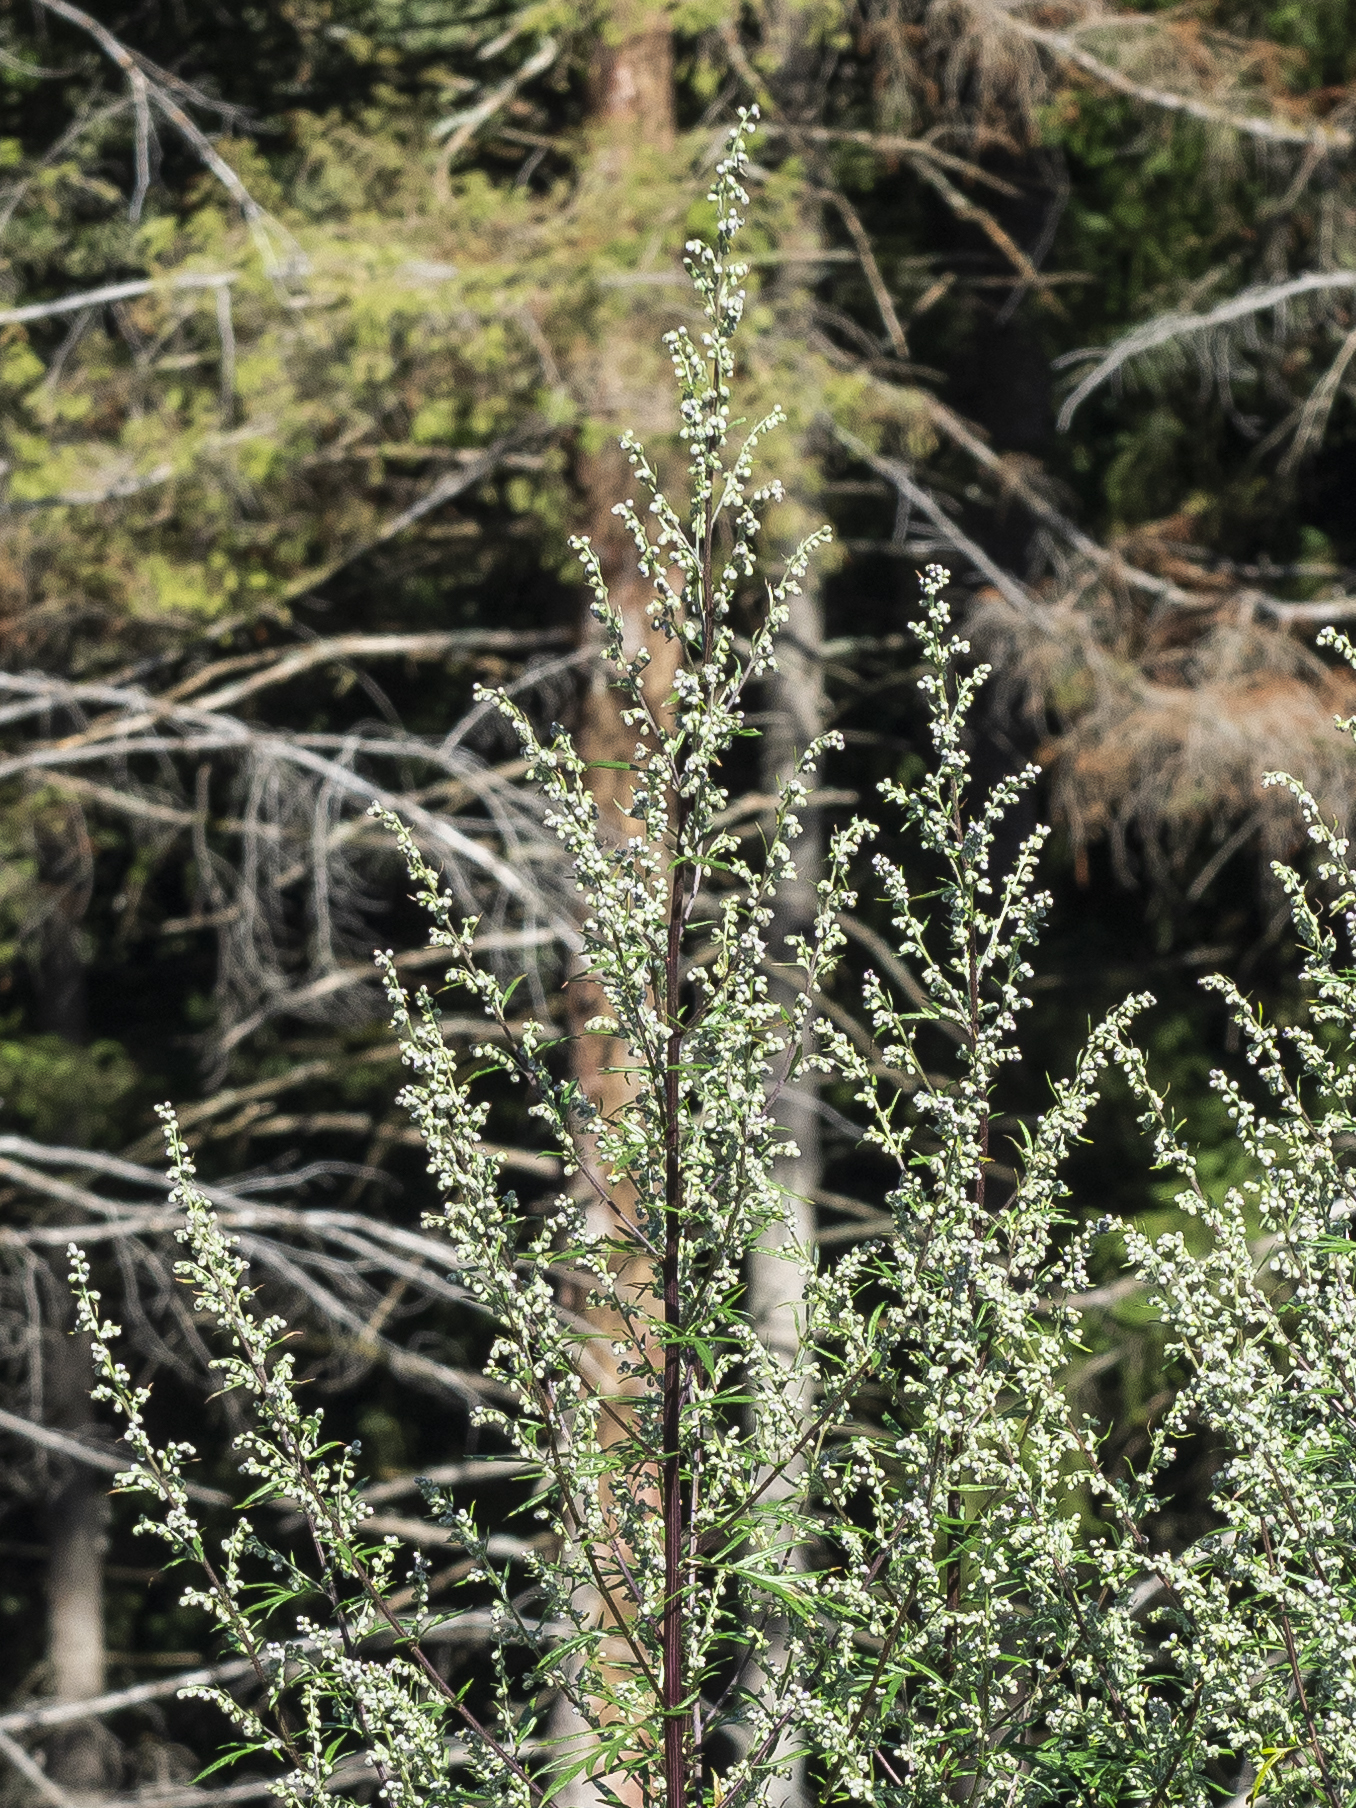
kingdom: Plantae
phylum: Tracheophyta
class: Magnoliopsida
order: Asterales
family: Asteraceae
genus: Artemisia
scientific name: Artemisia vulgaris
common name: Mugwort
